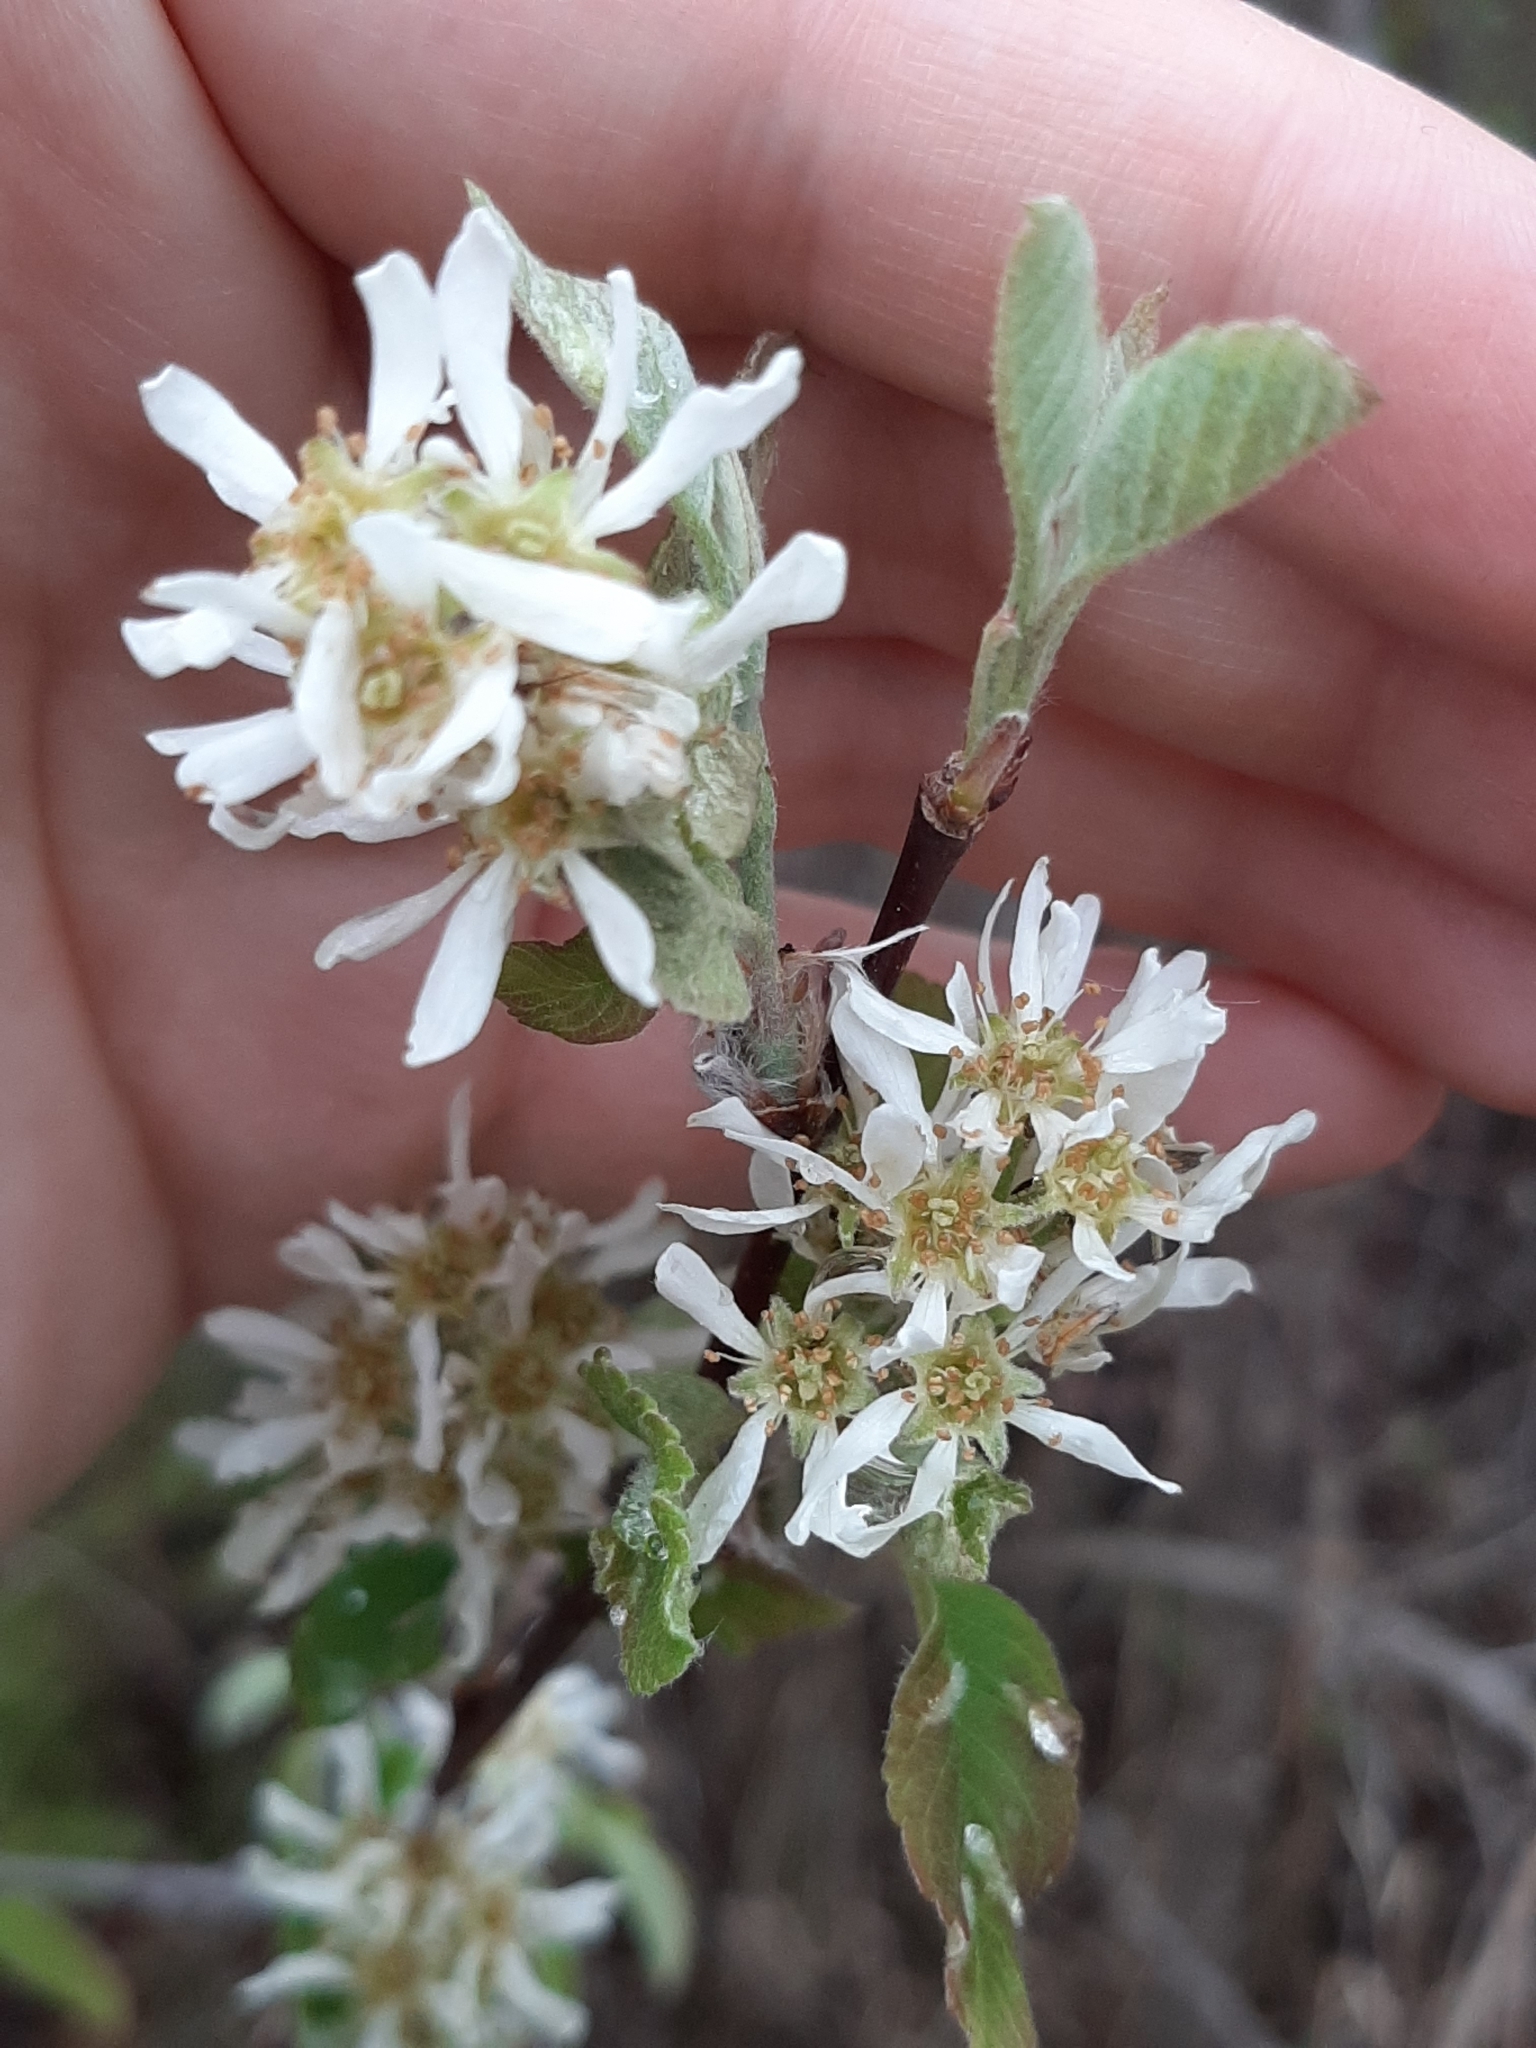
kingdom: Plantae
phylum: Tracheophyta
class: Magnoliopsida
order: Rosales
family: Rosaceae
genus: Amelanchier
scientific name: Amelanchier alnifolia
